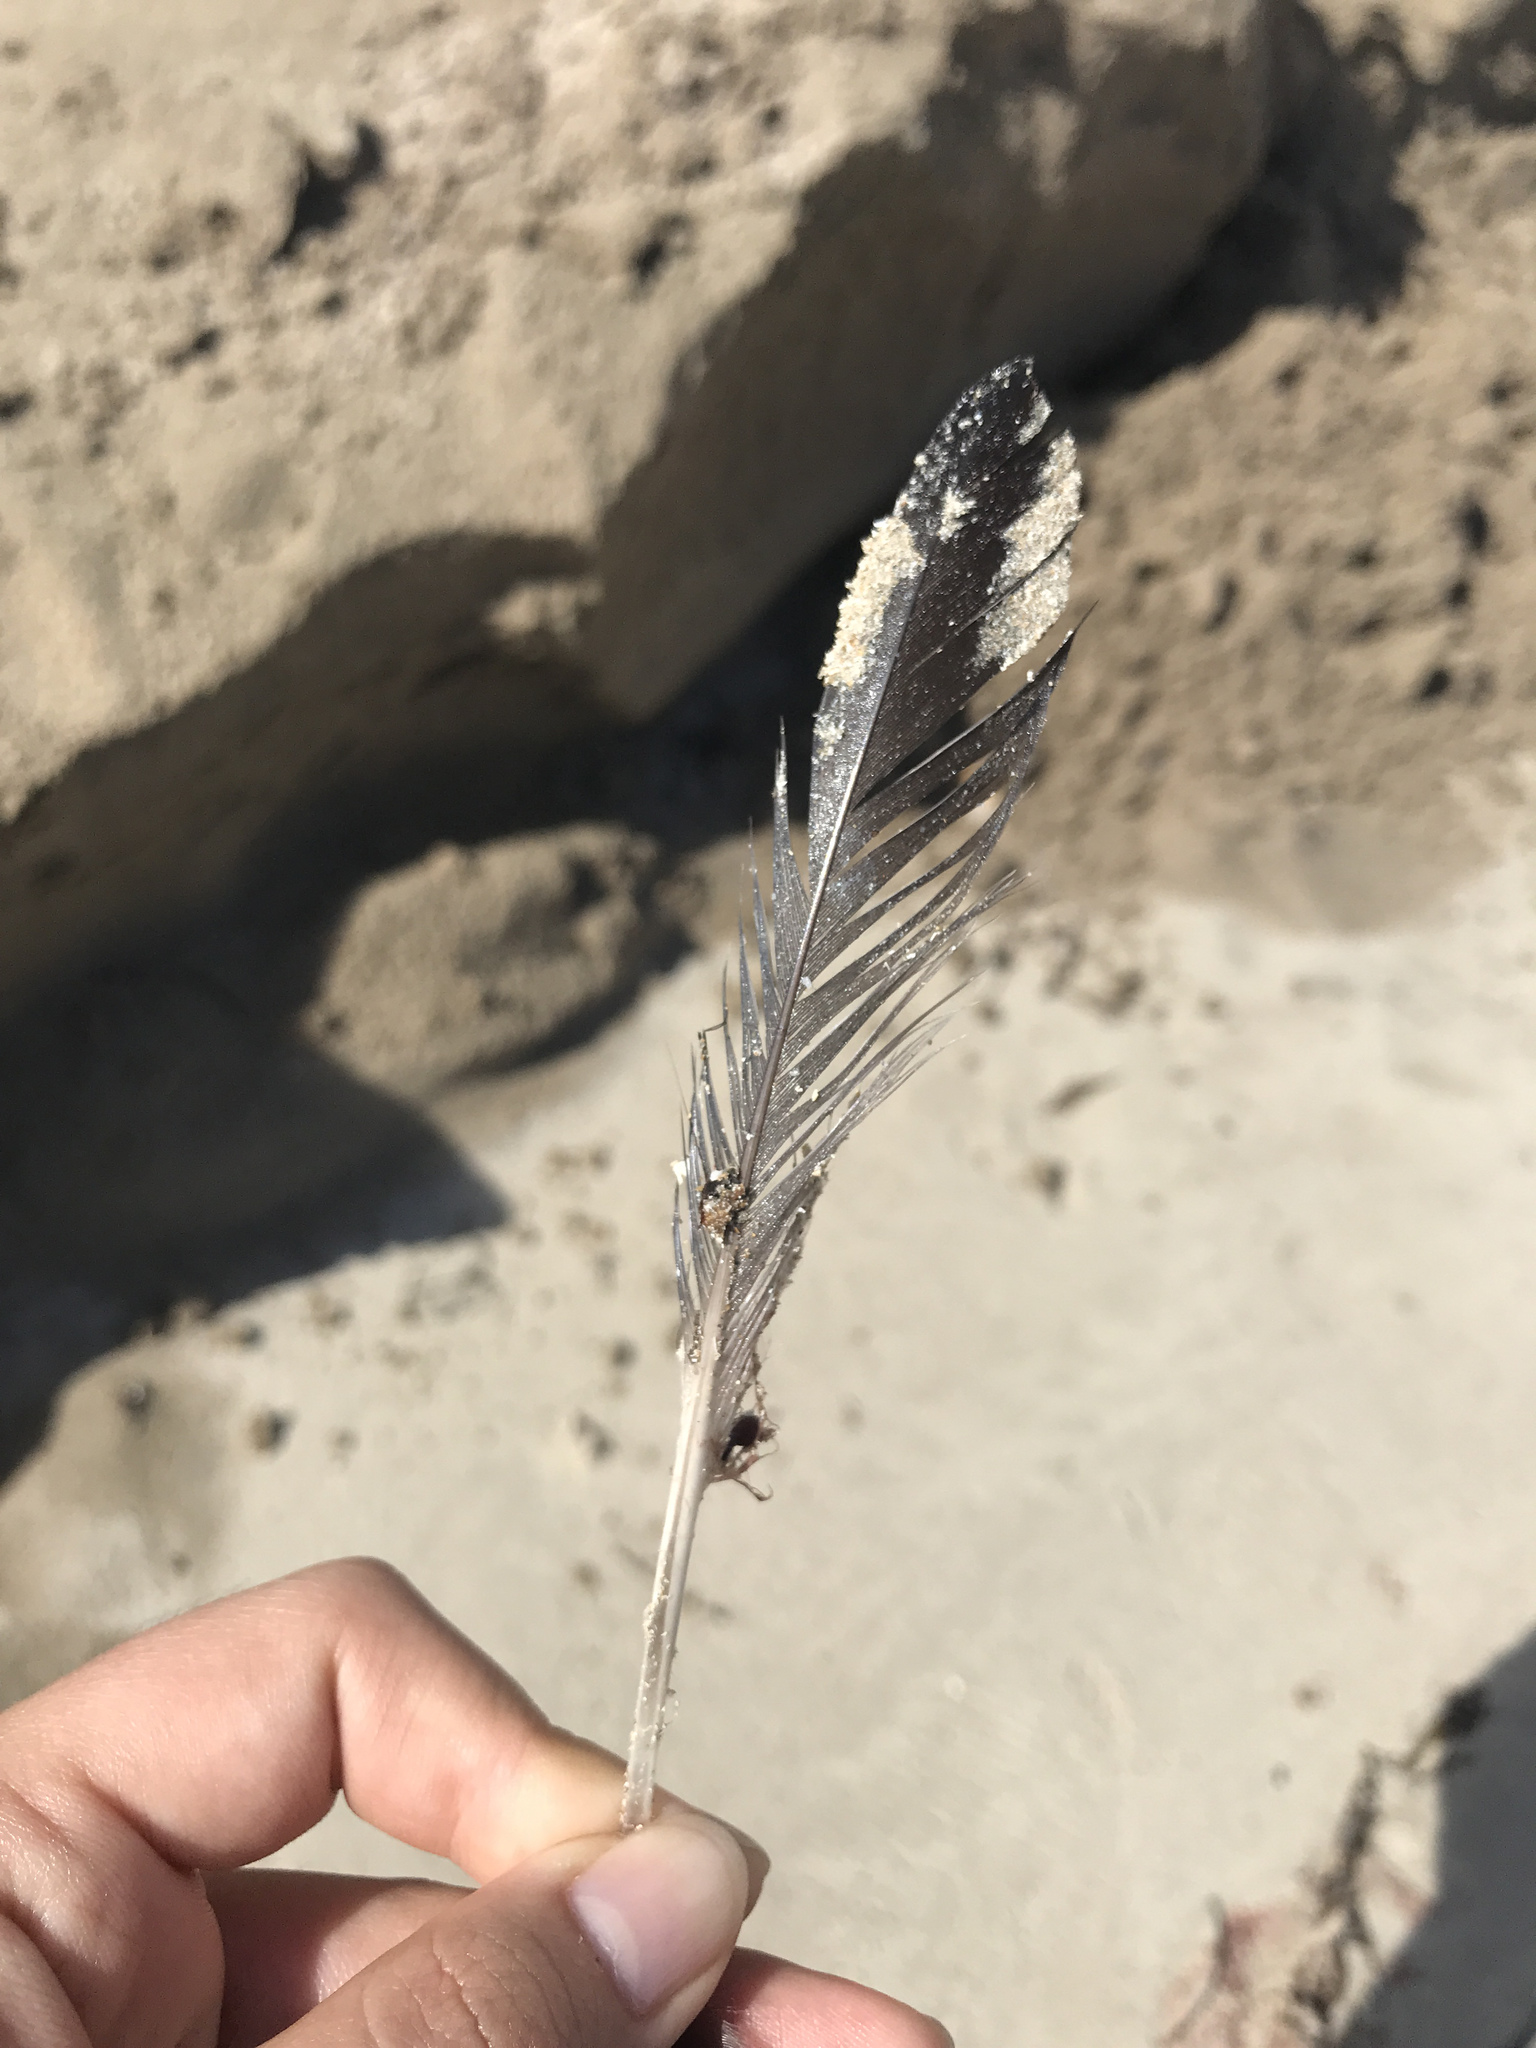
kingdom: Animalia
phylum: Chordata
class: Aves
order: Columbiformes
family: Columbidae
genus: Columba
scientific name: Columba livia
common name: Rock pigeon
